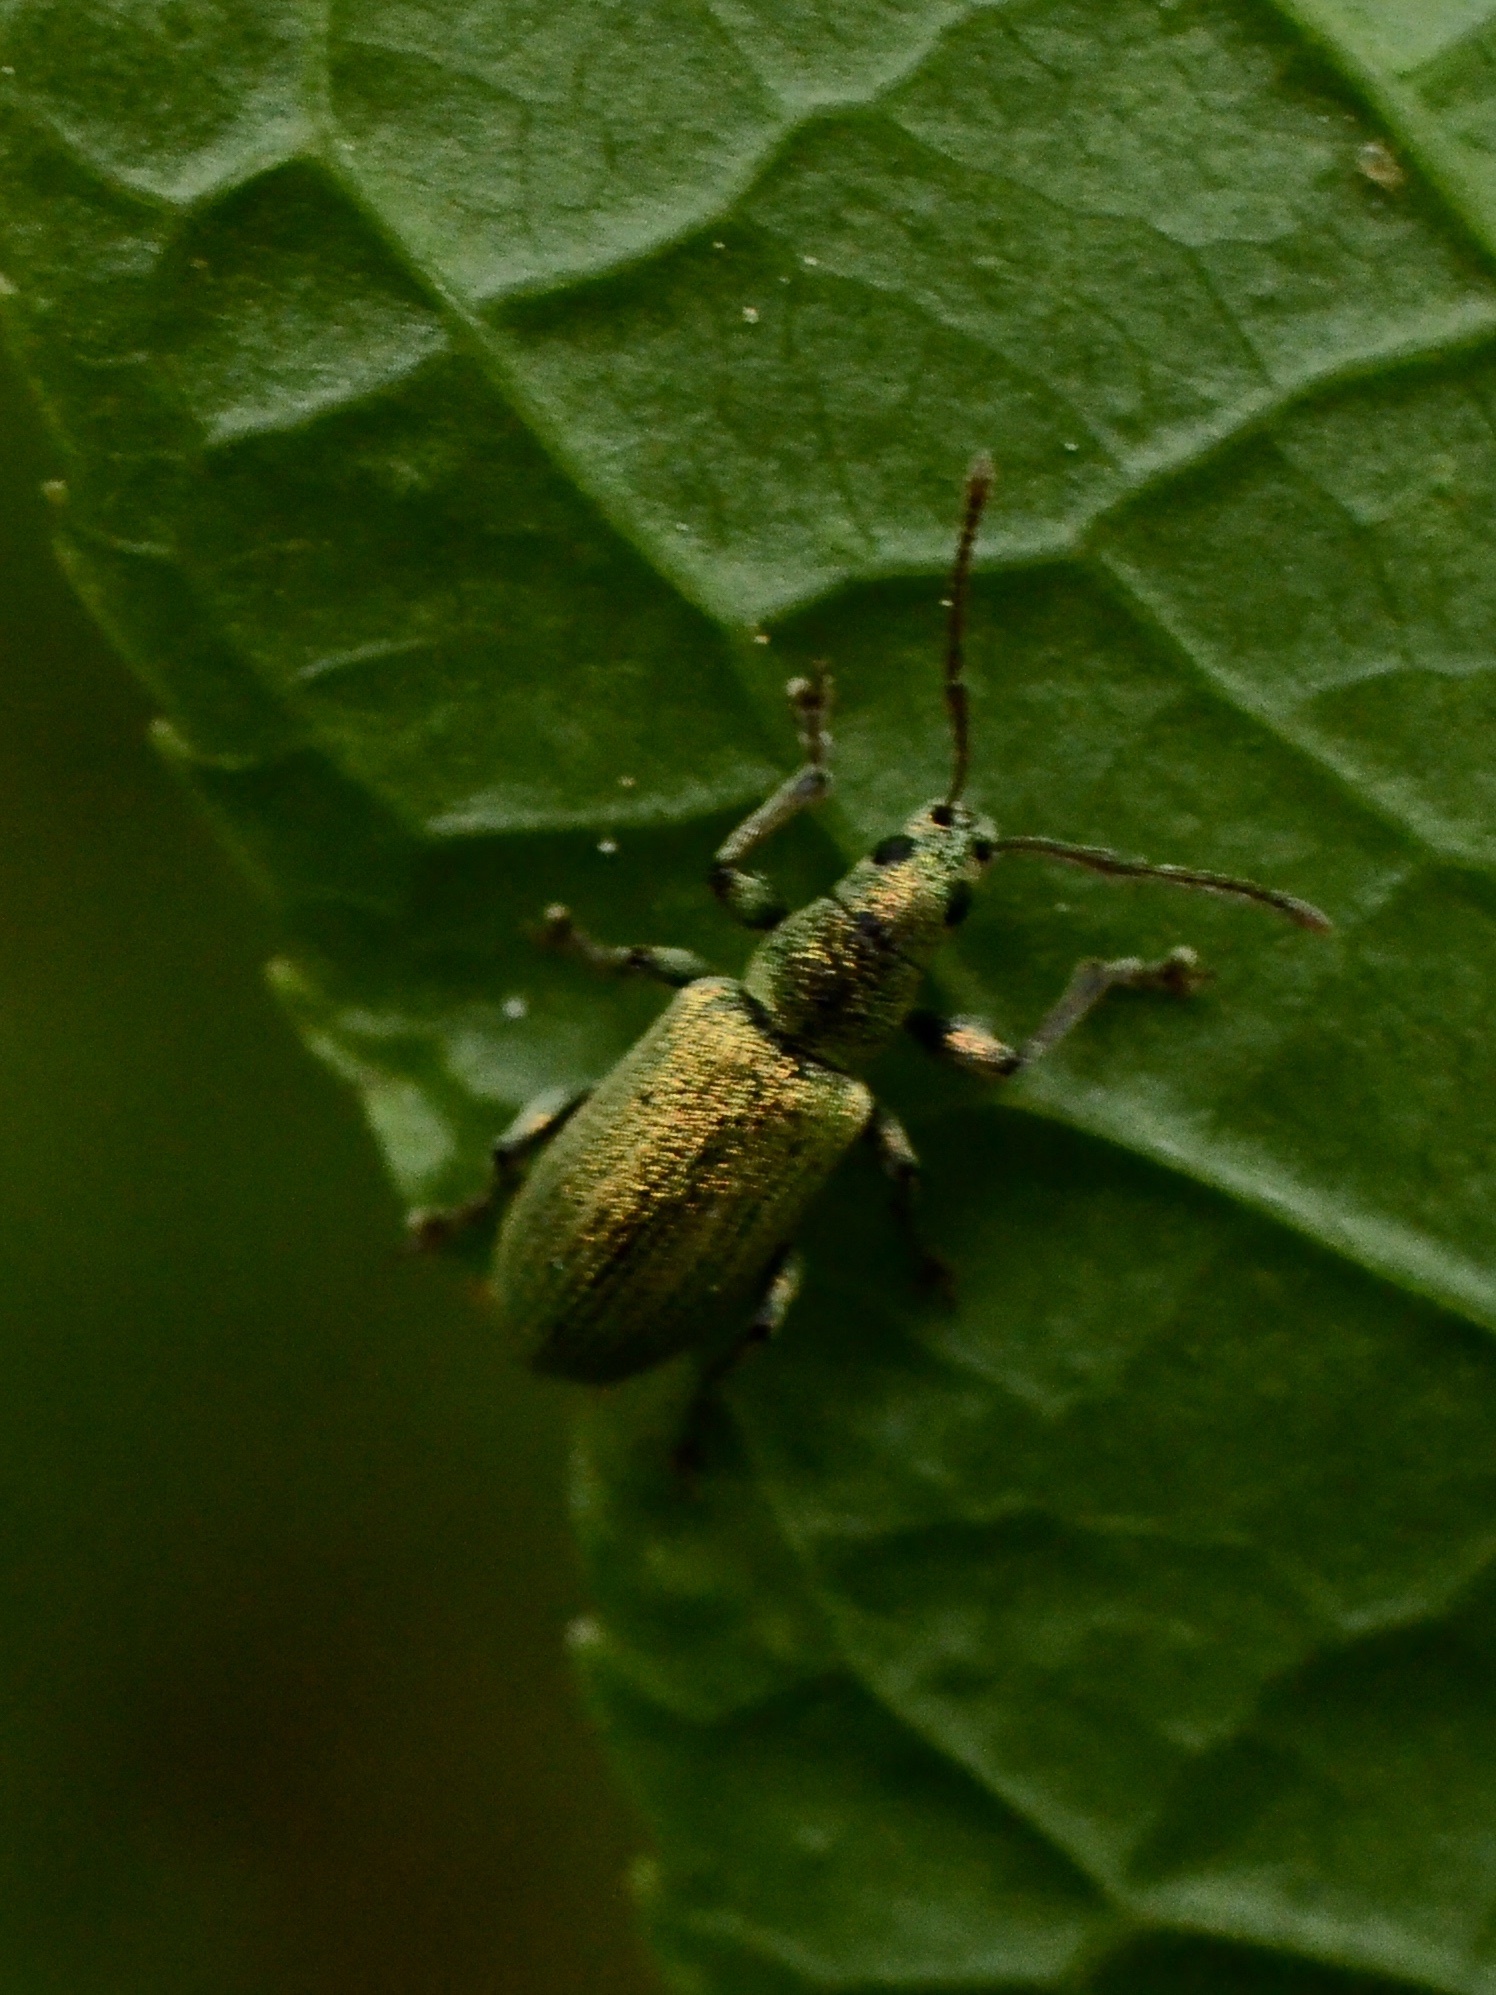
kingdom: Animalia
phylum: Arthropoda
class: Insecta
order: Coleoptera
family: Curculionidae
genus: Phyllobius
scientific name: Phyllobius argentatus
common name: Silver-green leaf weevil
